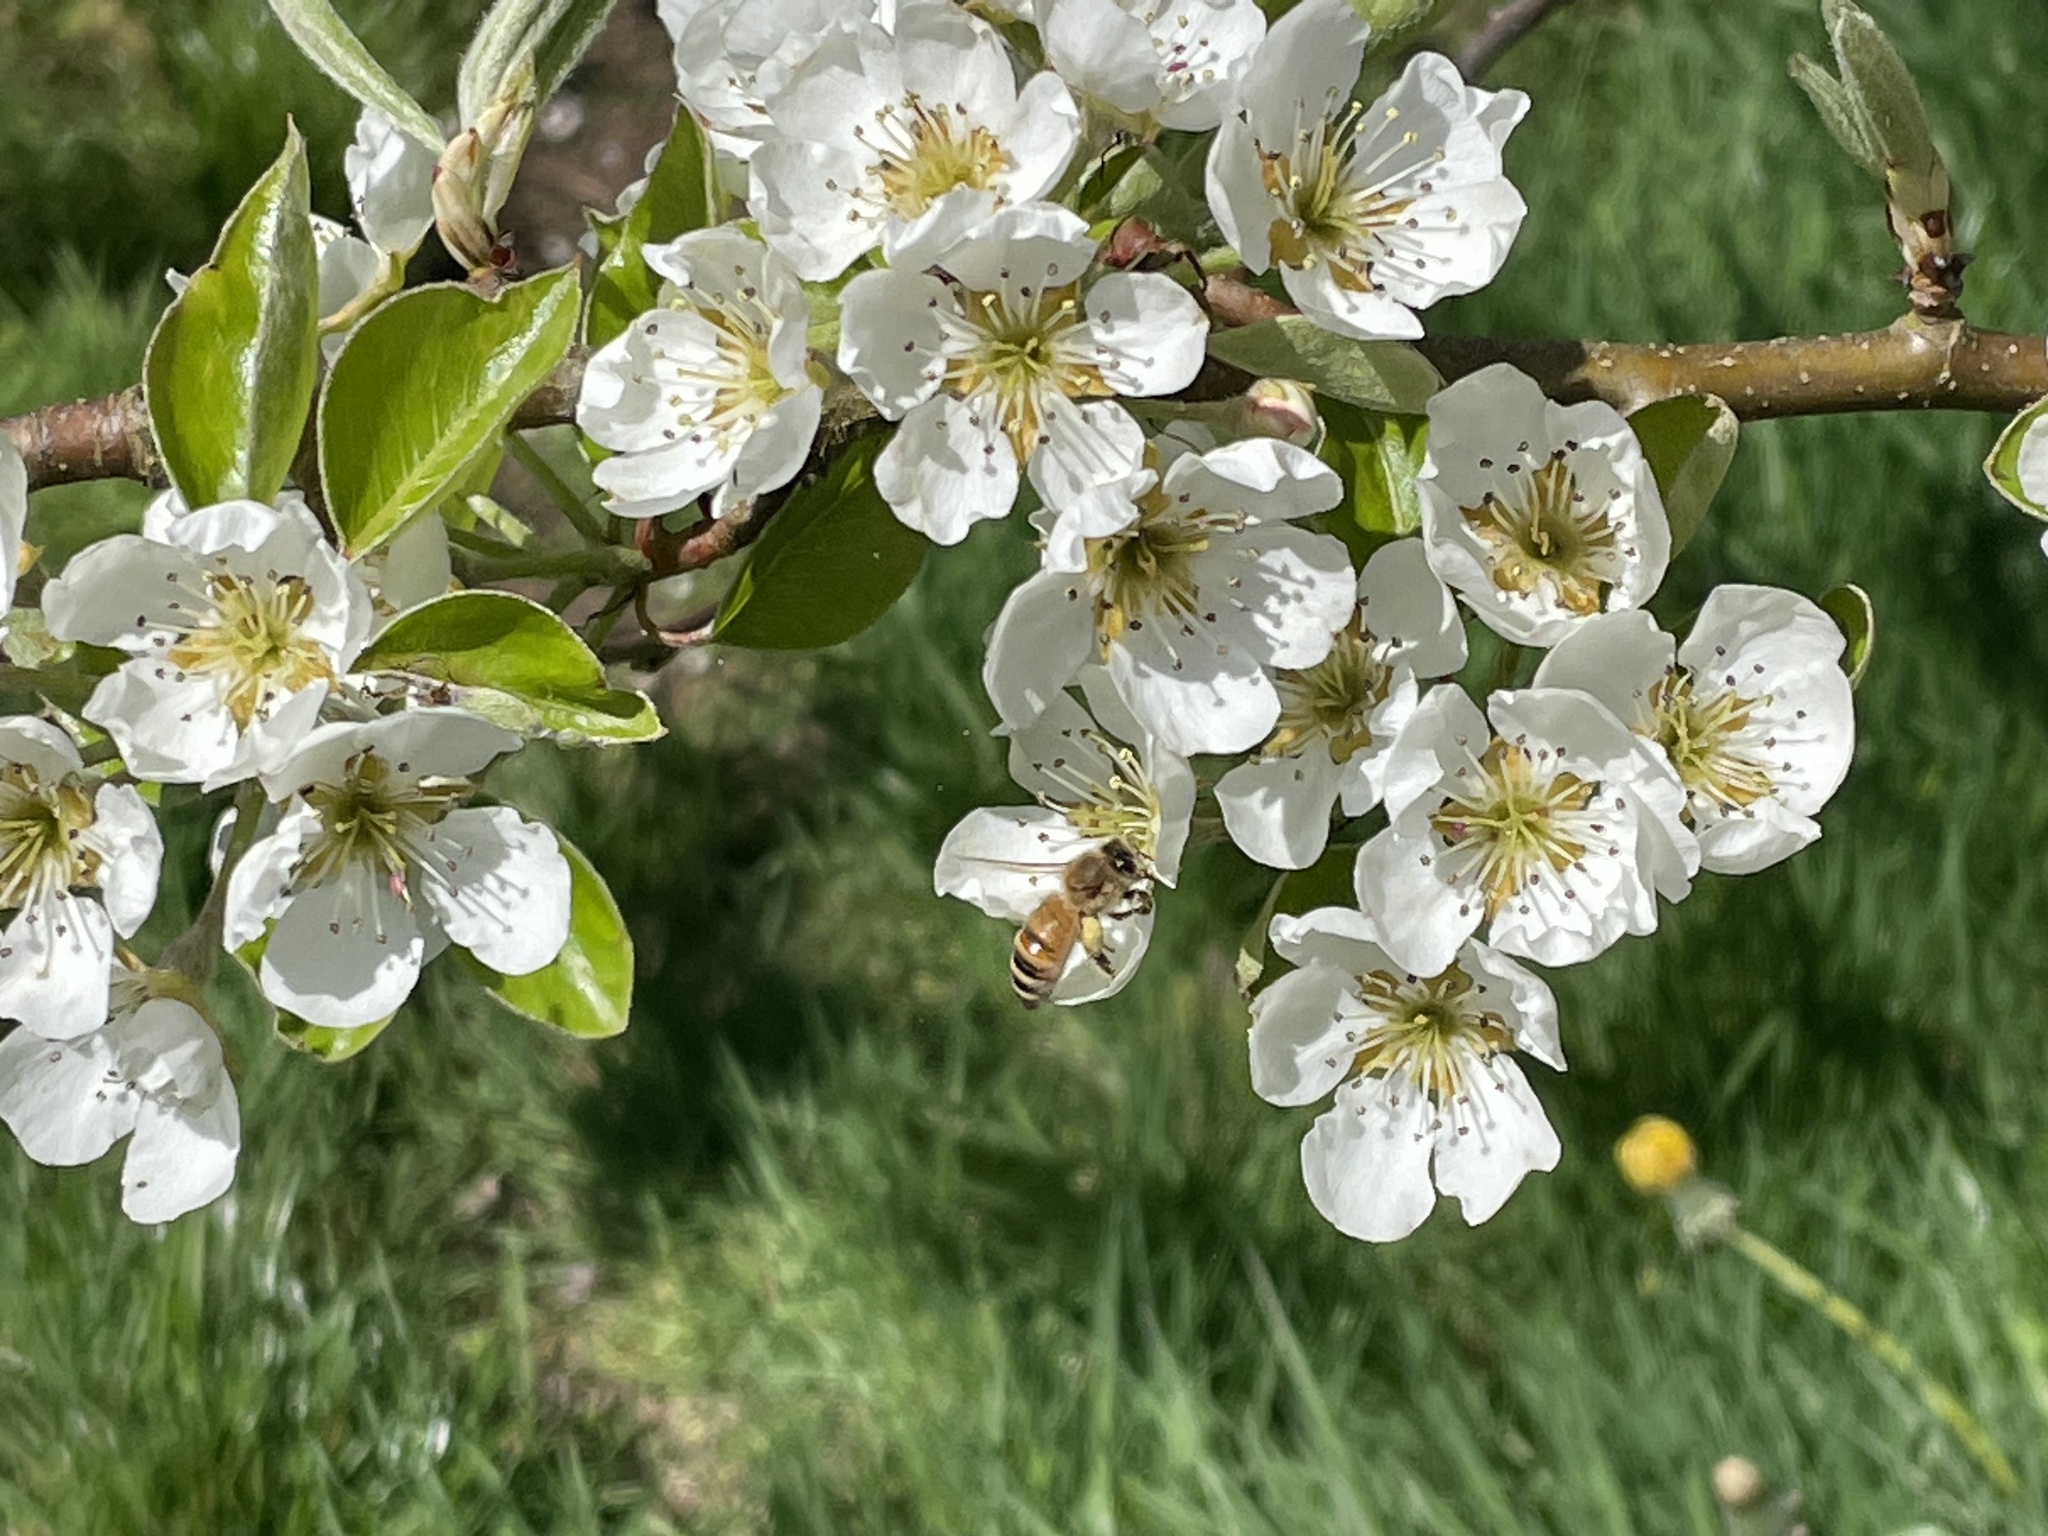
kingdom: Animalia
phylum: Arthropoda
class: Insecta
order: Hymenoptera
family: Apidae
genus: Apis
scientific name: Apis mellifera
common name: Honey bee
